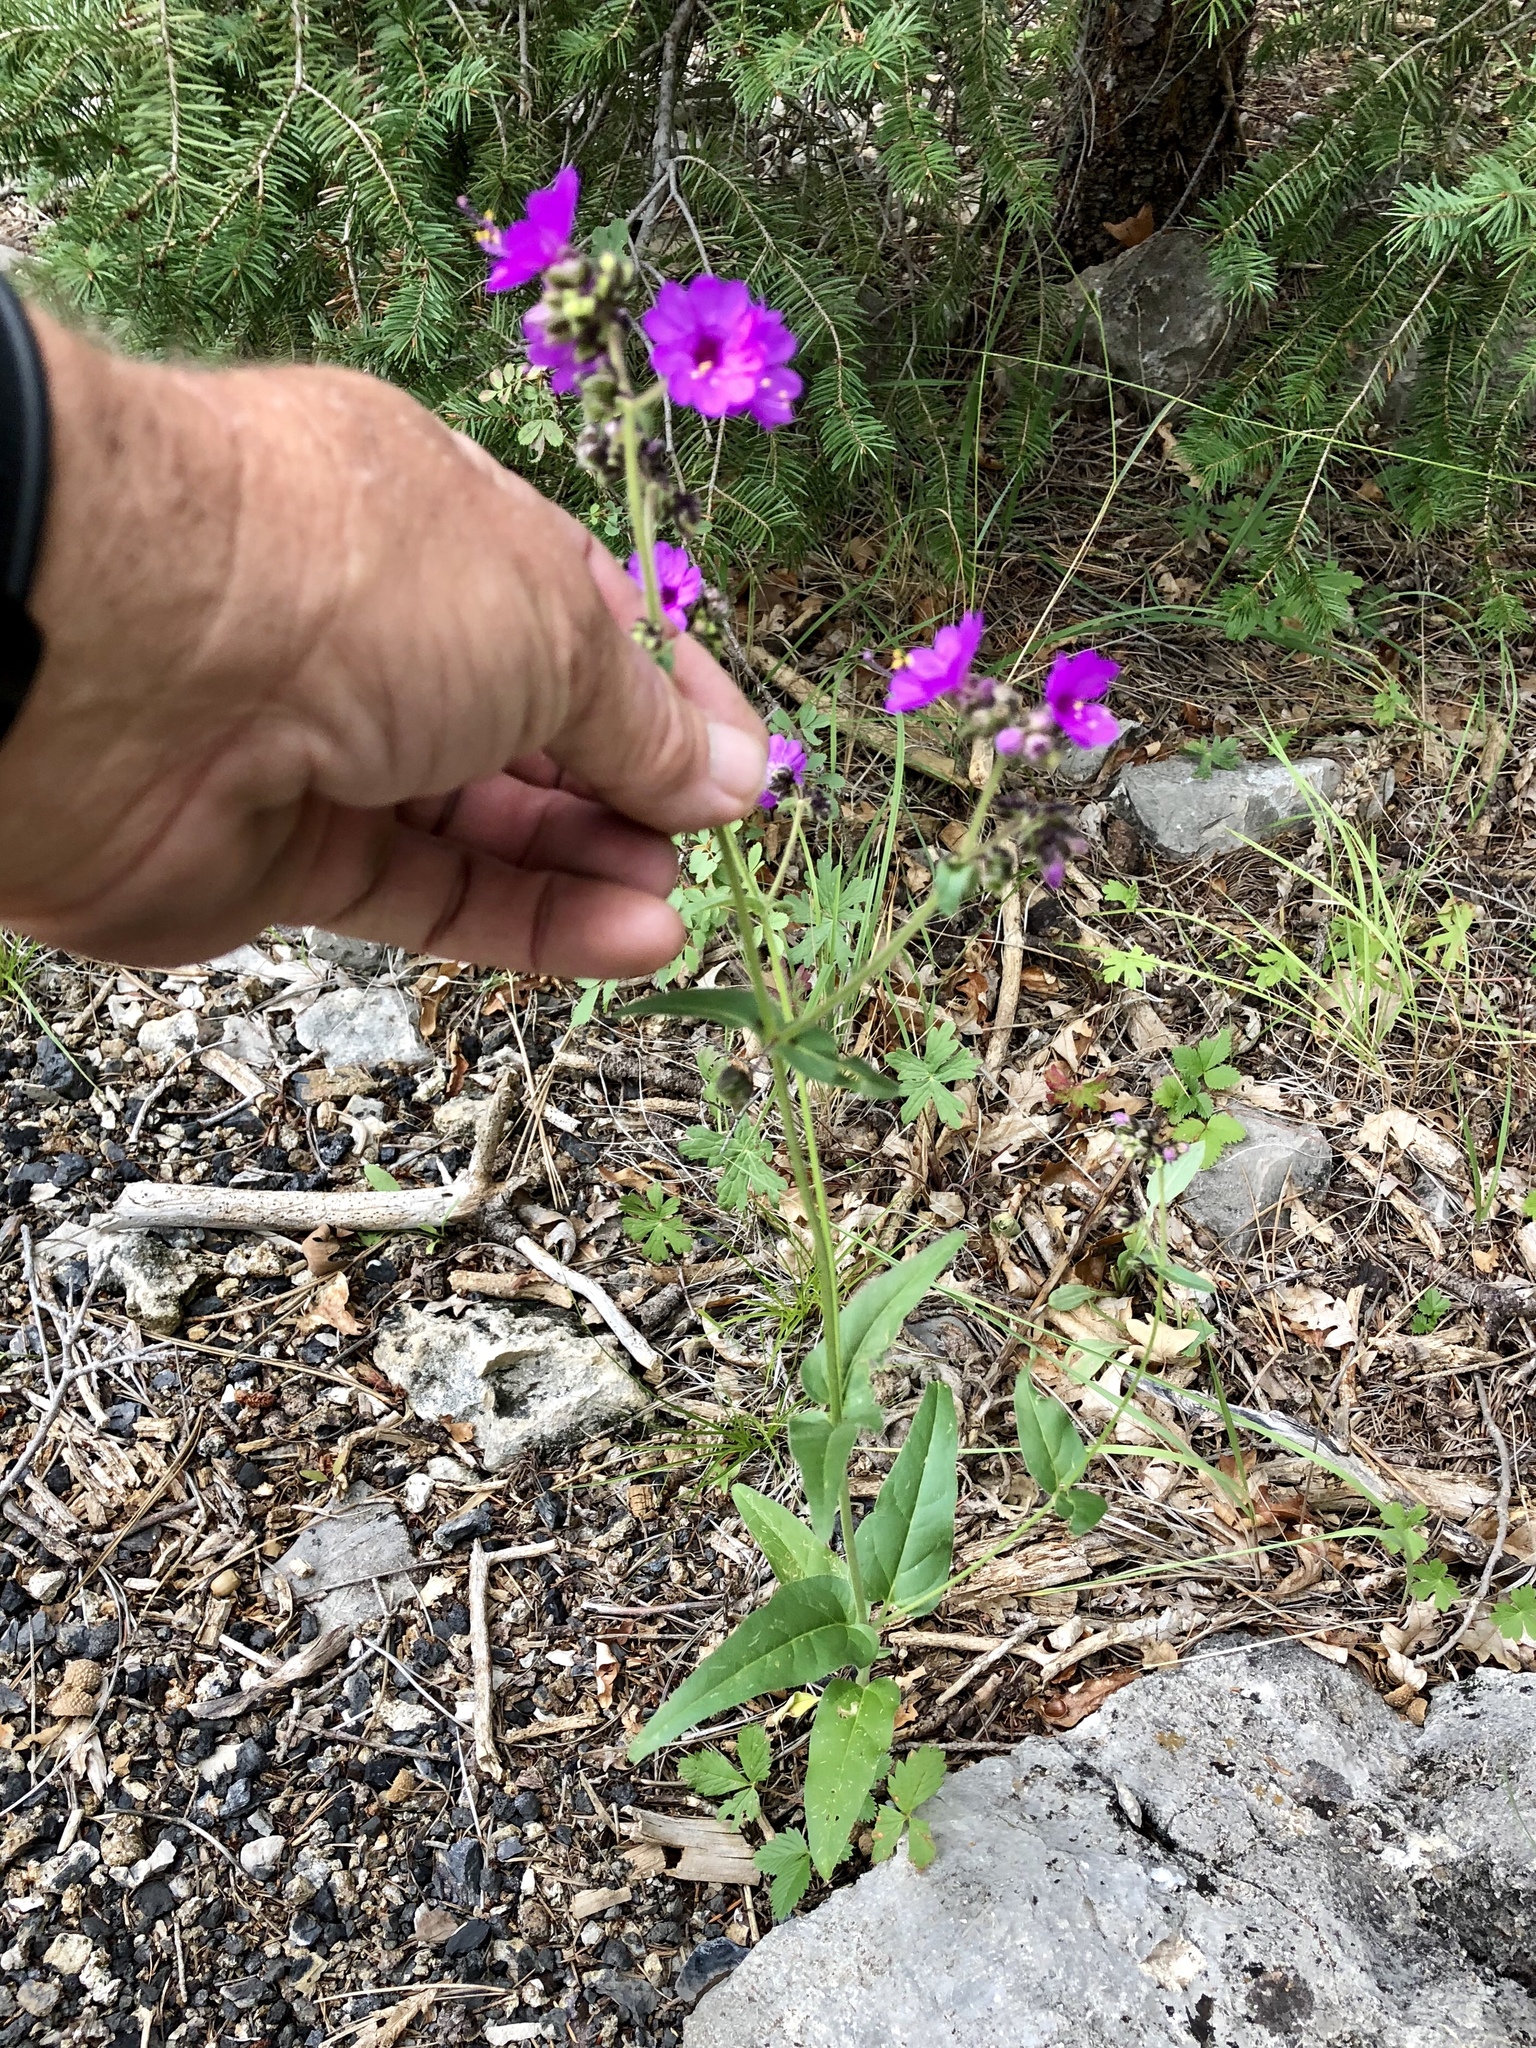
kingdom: Plantae
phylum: Tracheophyta
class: Magnoliopsida
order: Caryophyllales
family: Nyctaginaceae
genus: Mirabilis
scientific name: Mirabilis melanotricha
